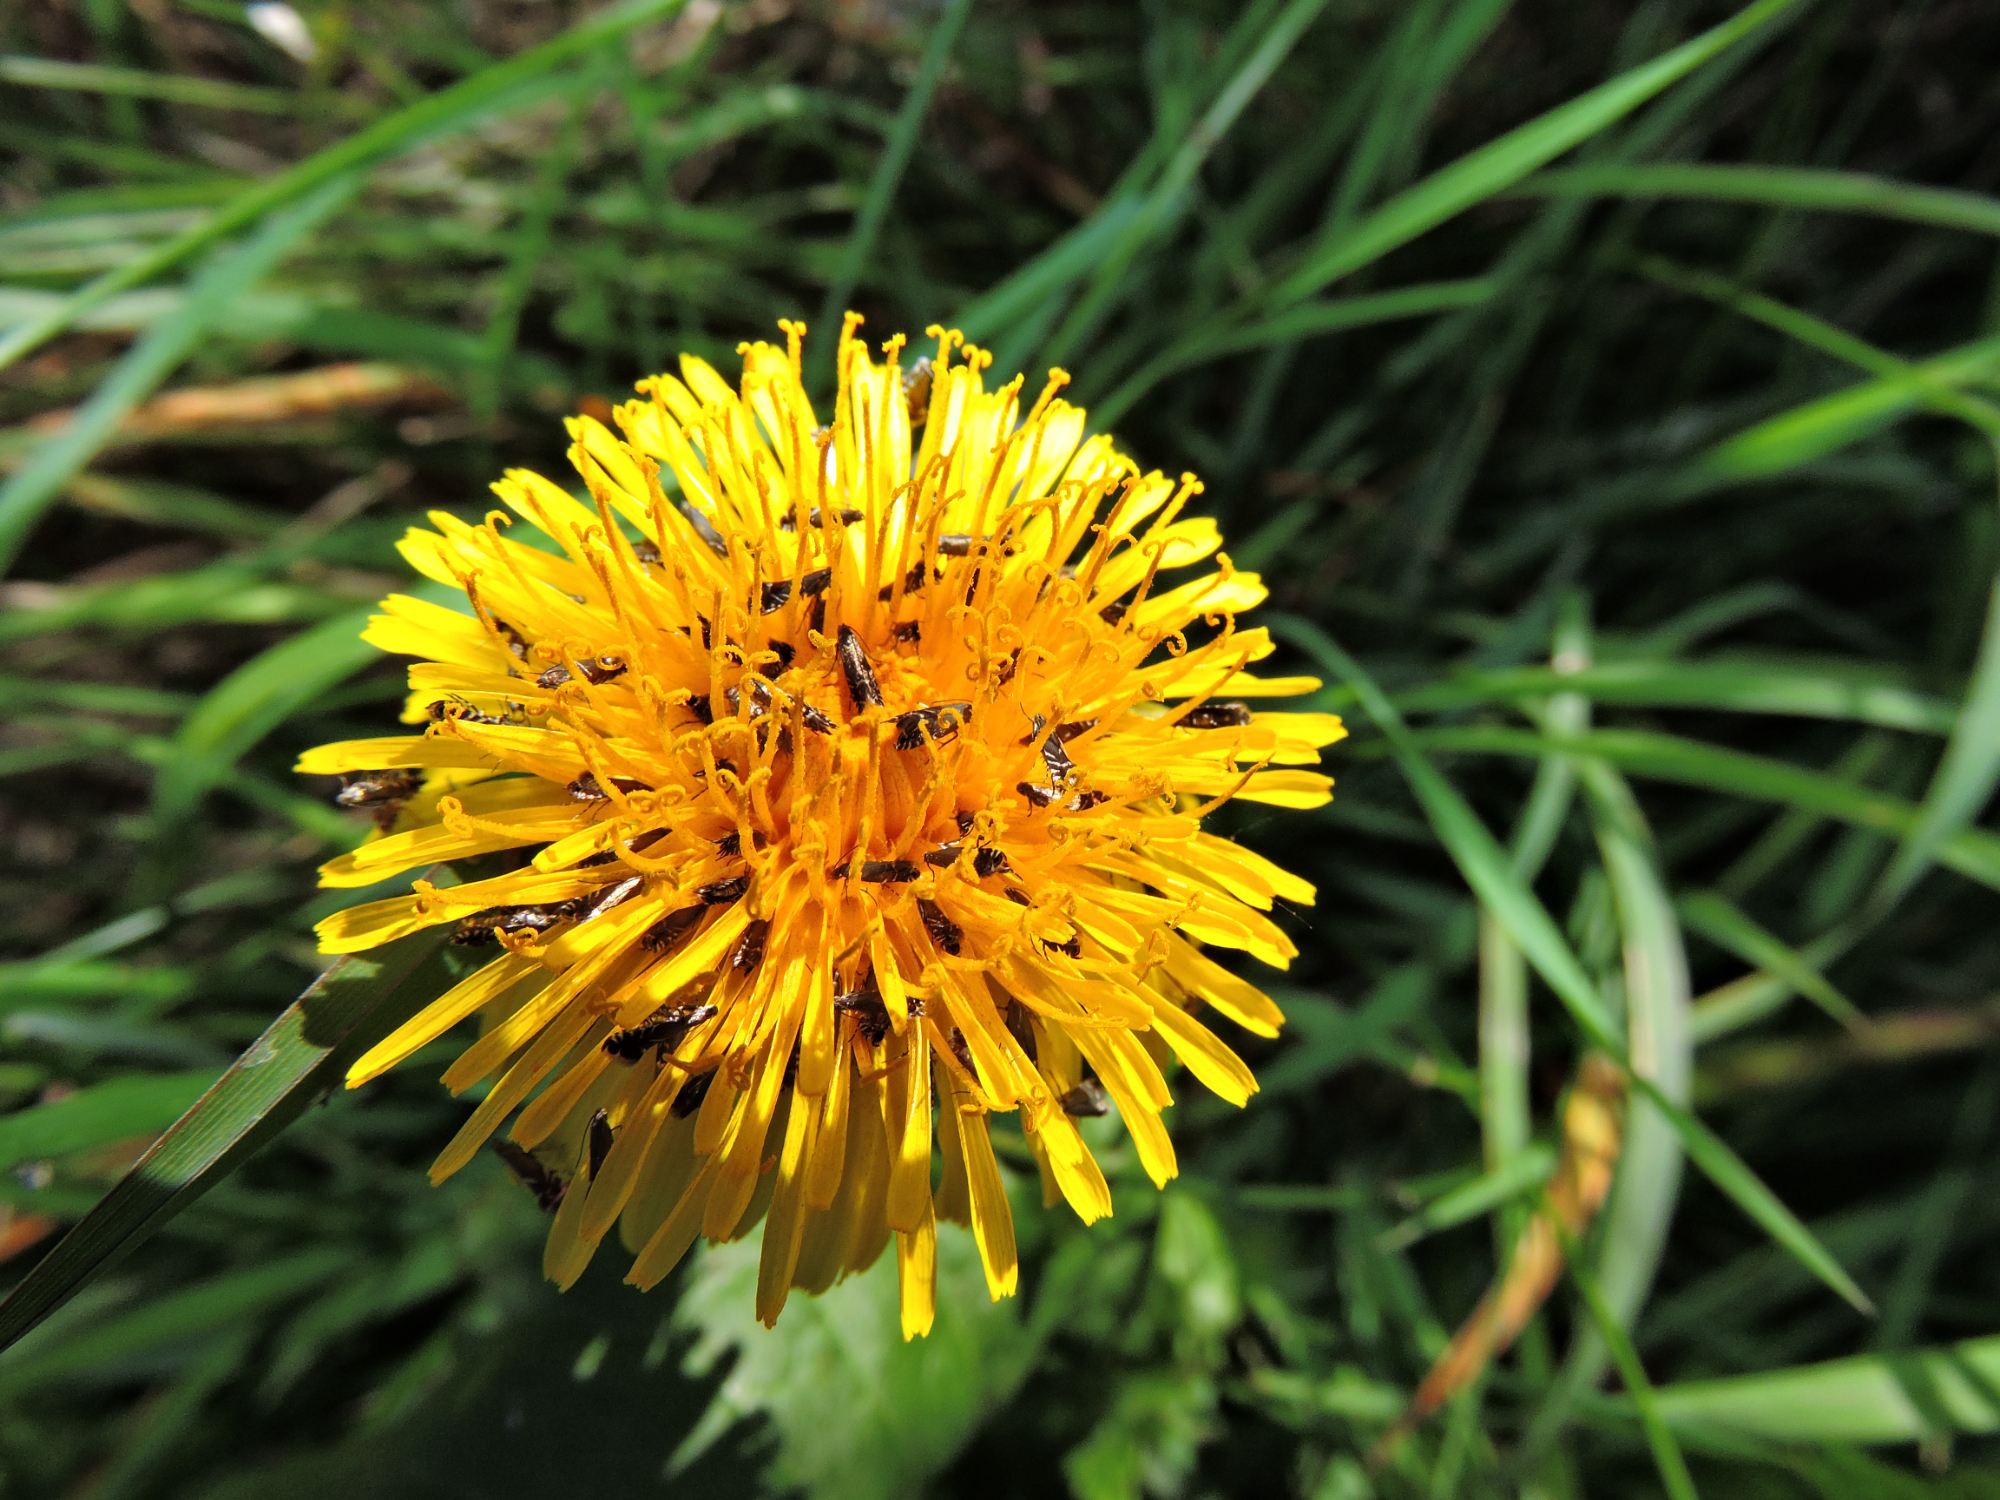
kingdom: Animalia
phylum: Arthropoda
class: Insecta
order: Lepidoptera
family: Glyphipterigidae
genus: Glyphipterix
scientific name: Glyphipterix simpliciella
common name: Cocksfoot moth
